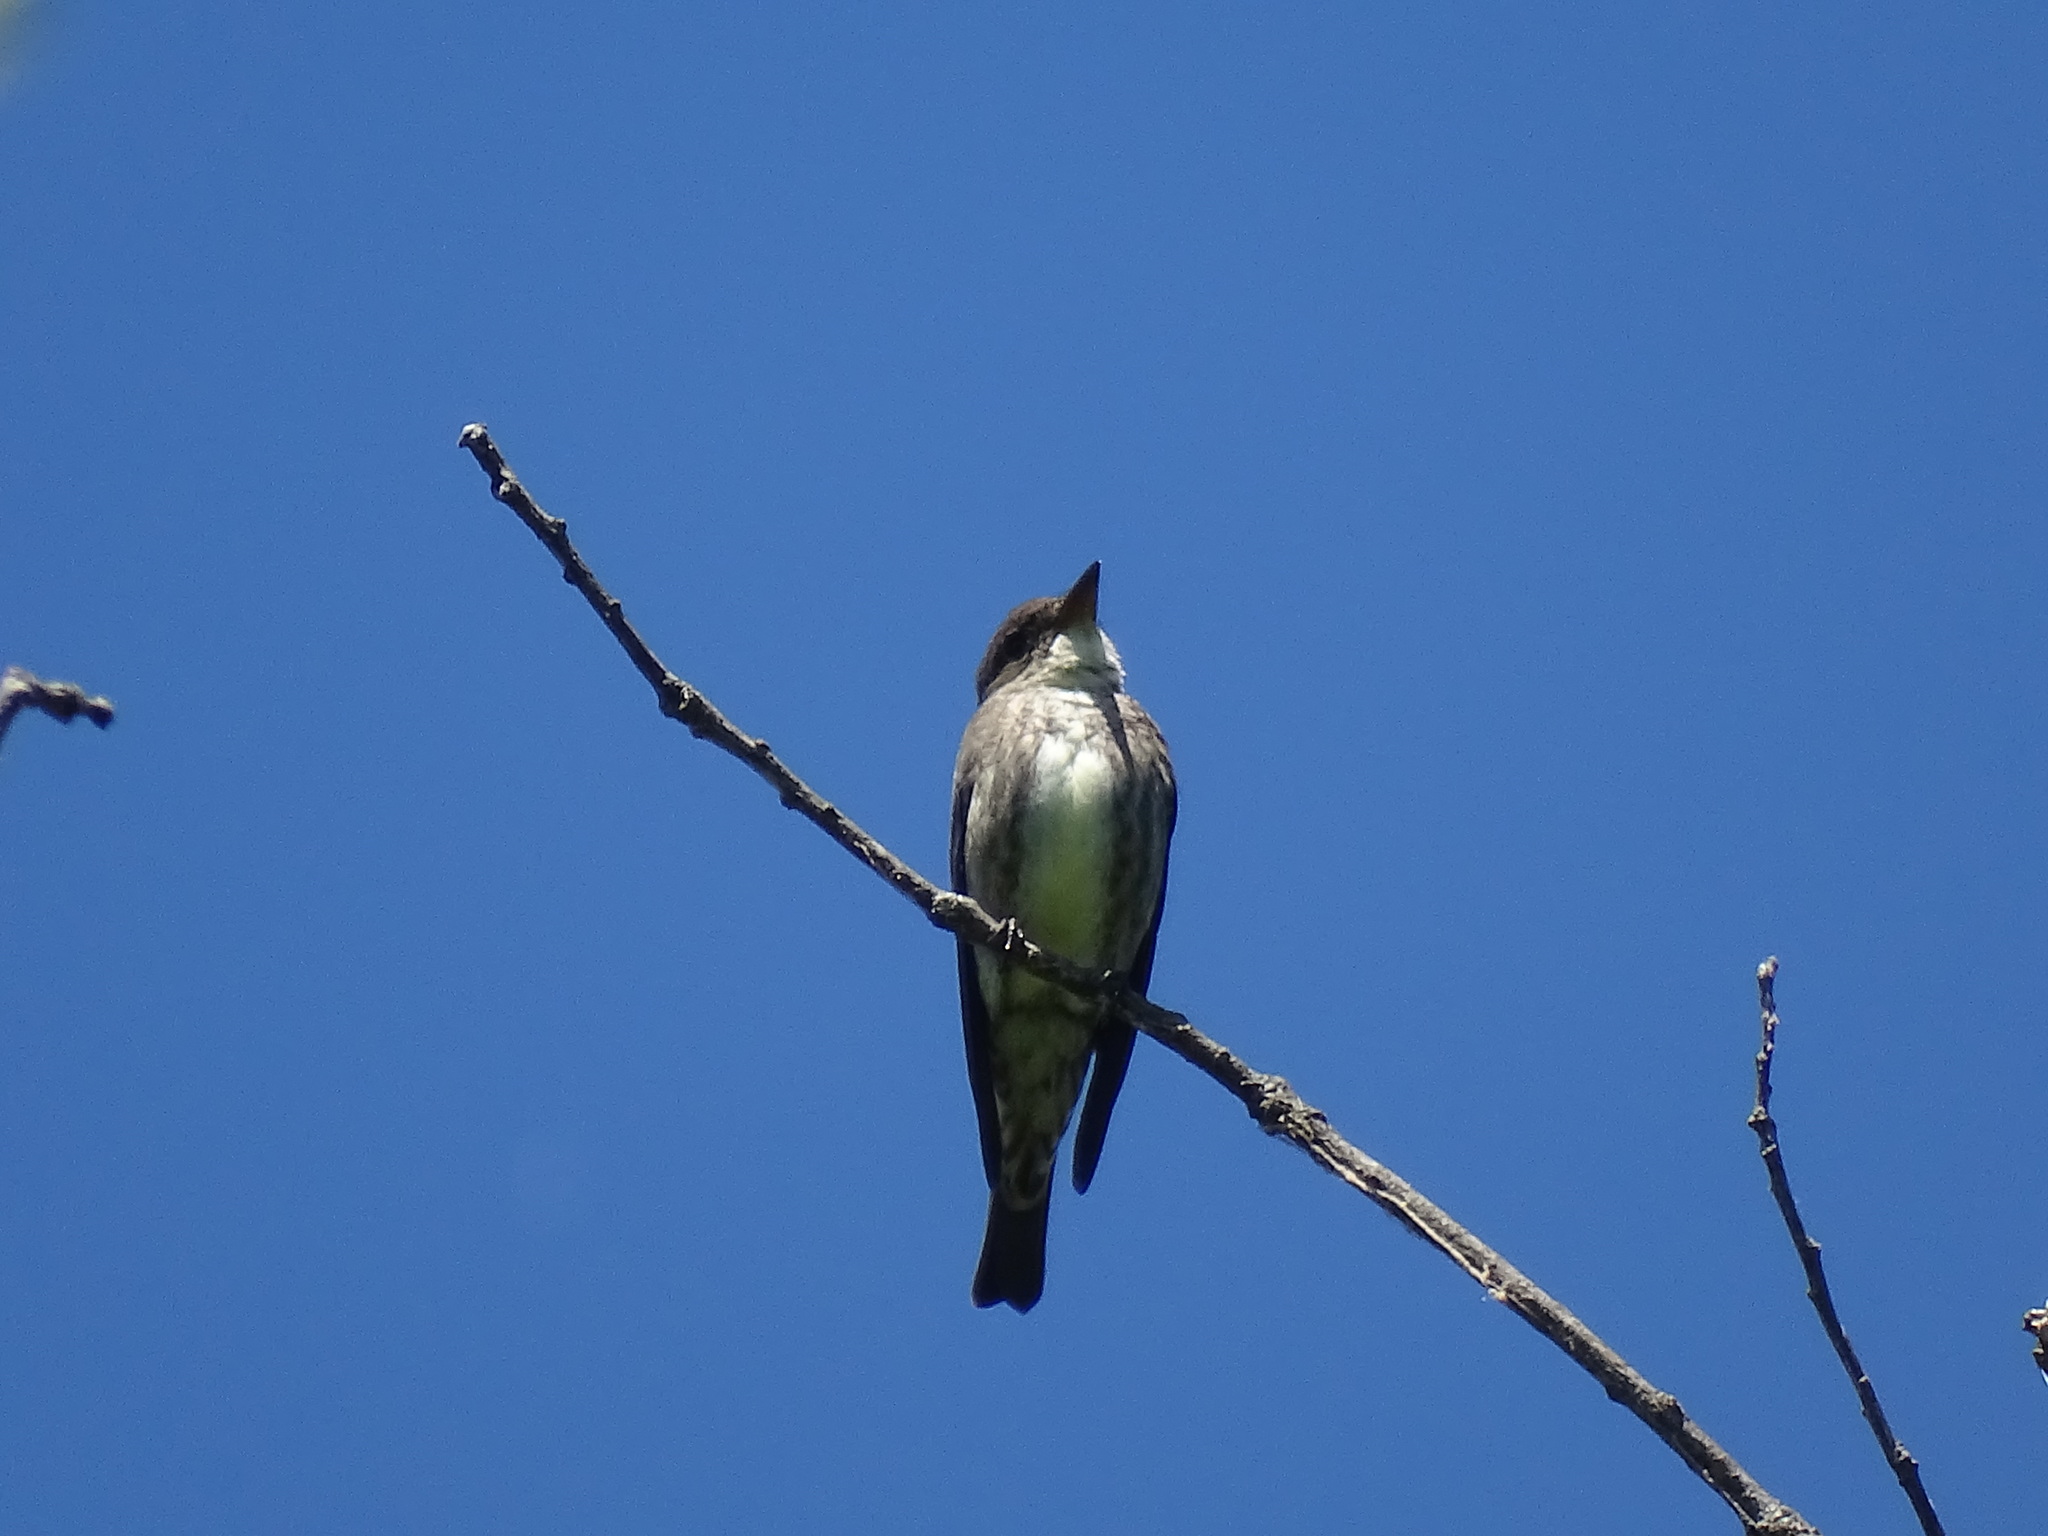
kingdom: Animalia
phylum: Chordata
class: Aves
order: Passeriformes
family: Tyrannidae
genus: Contopus
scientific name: Contopus cooperi
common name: Olive-sided flycatcher
